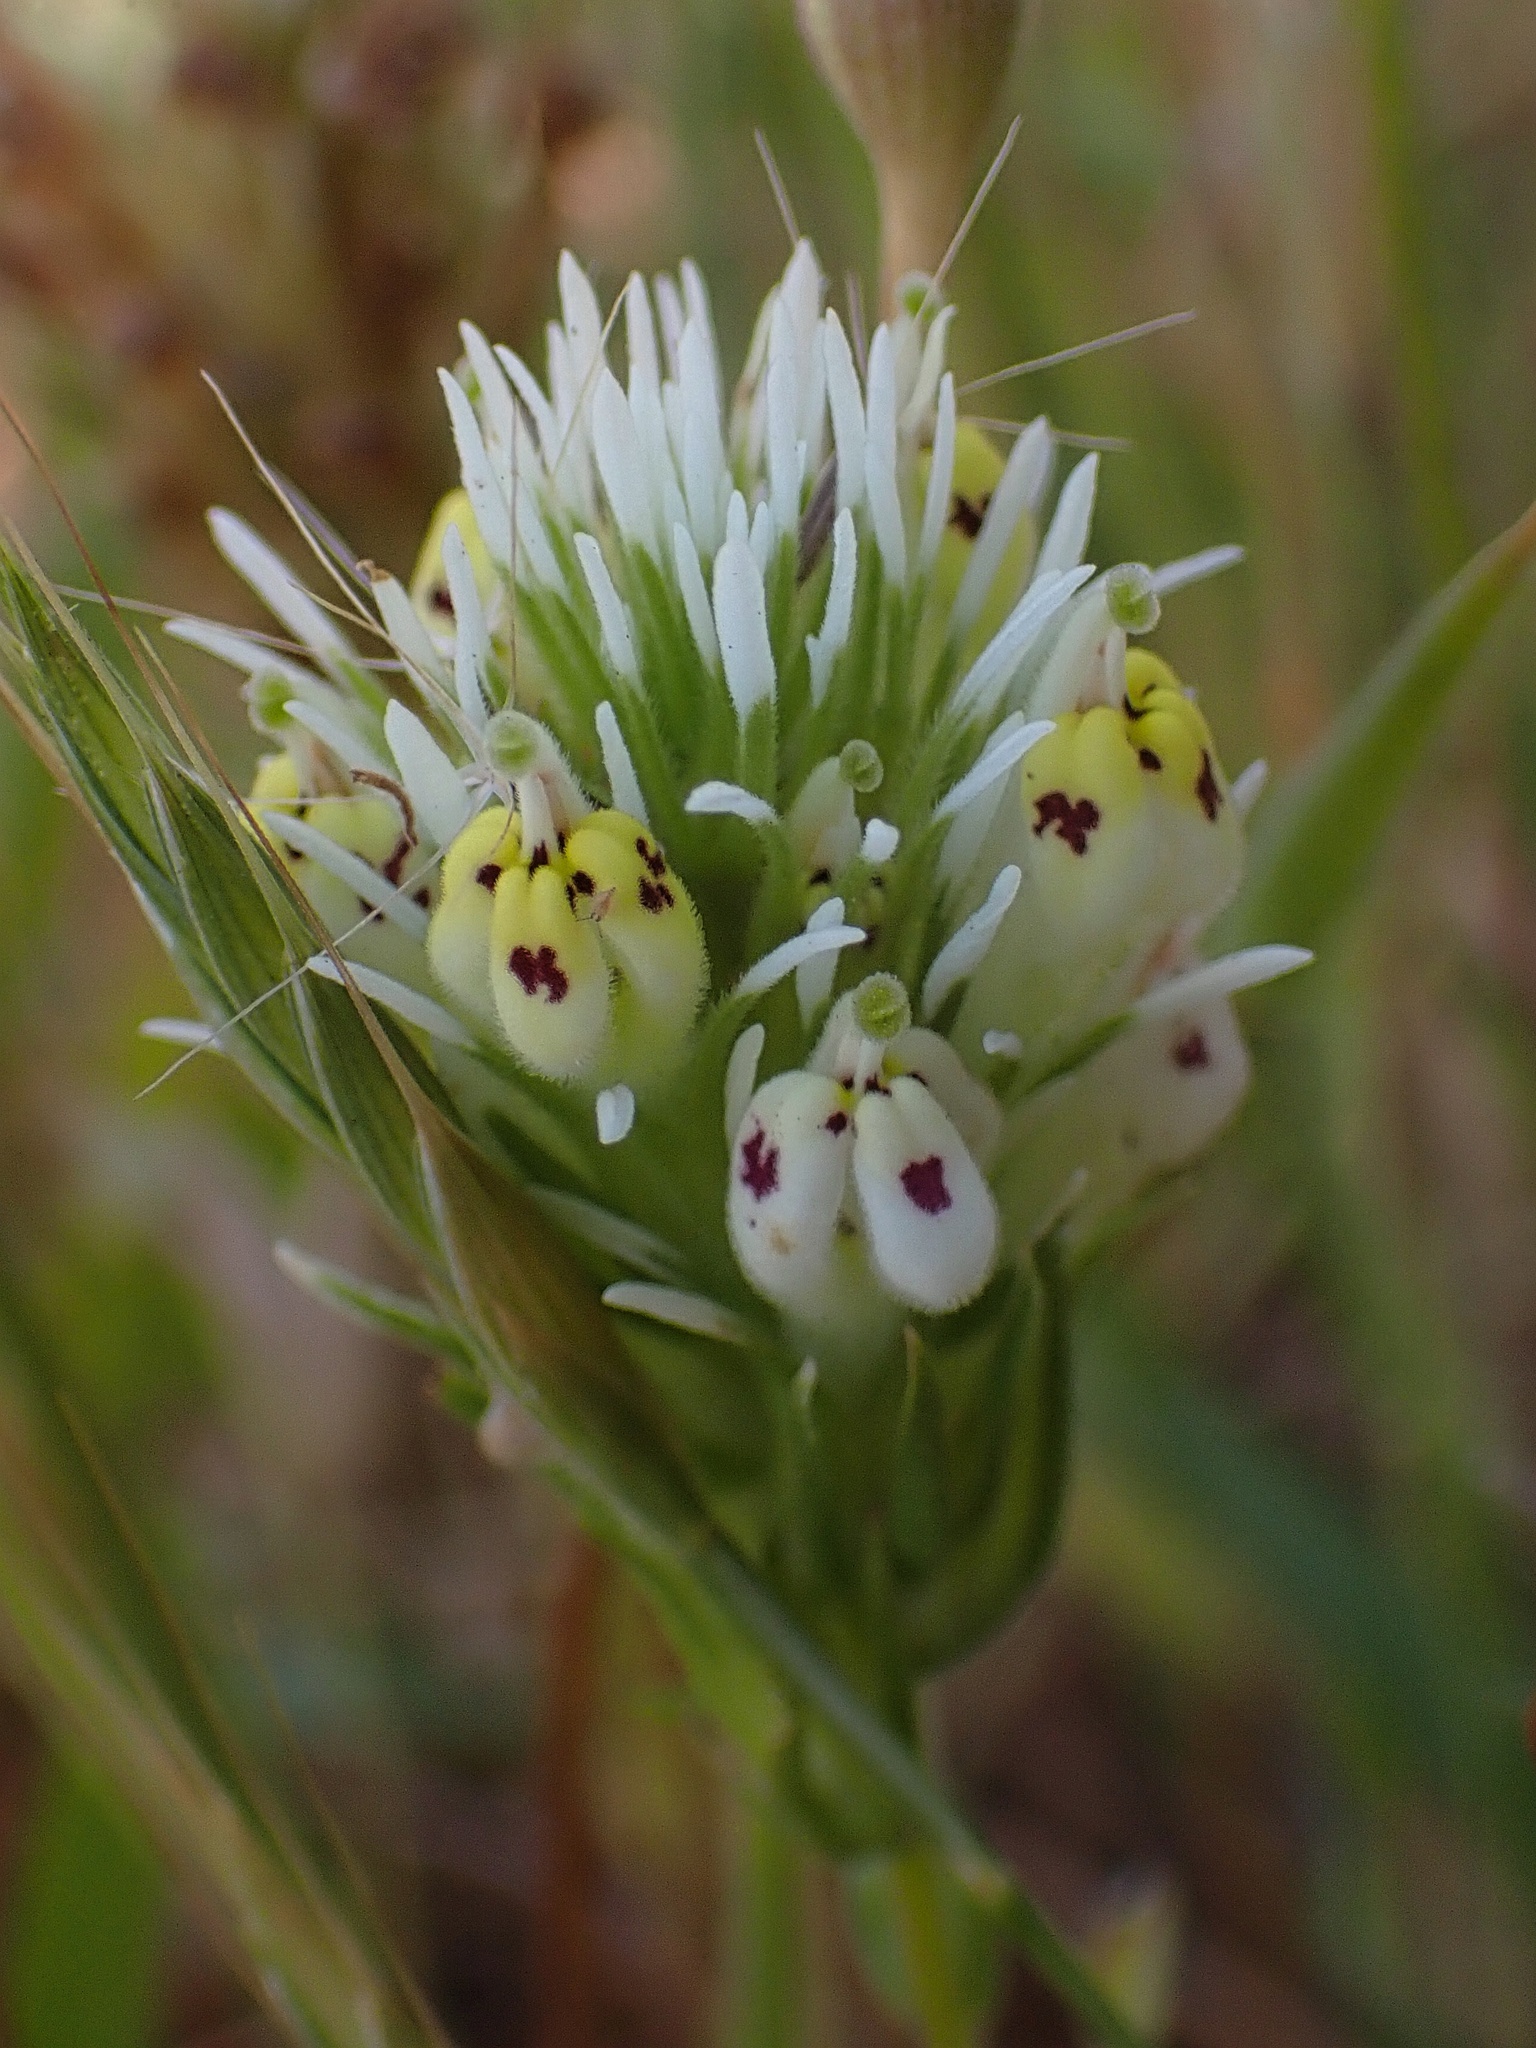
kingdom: Plantae
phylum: Tracheophyta
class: Magnoliopsida
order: Lamiales
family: Orobanchaceae
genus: Castilleja
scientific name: Castilleja densiflora
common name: Dense-flower indian paintbrush
